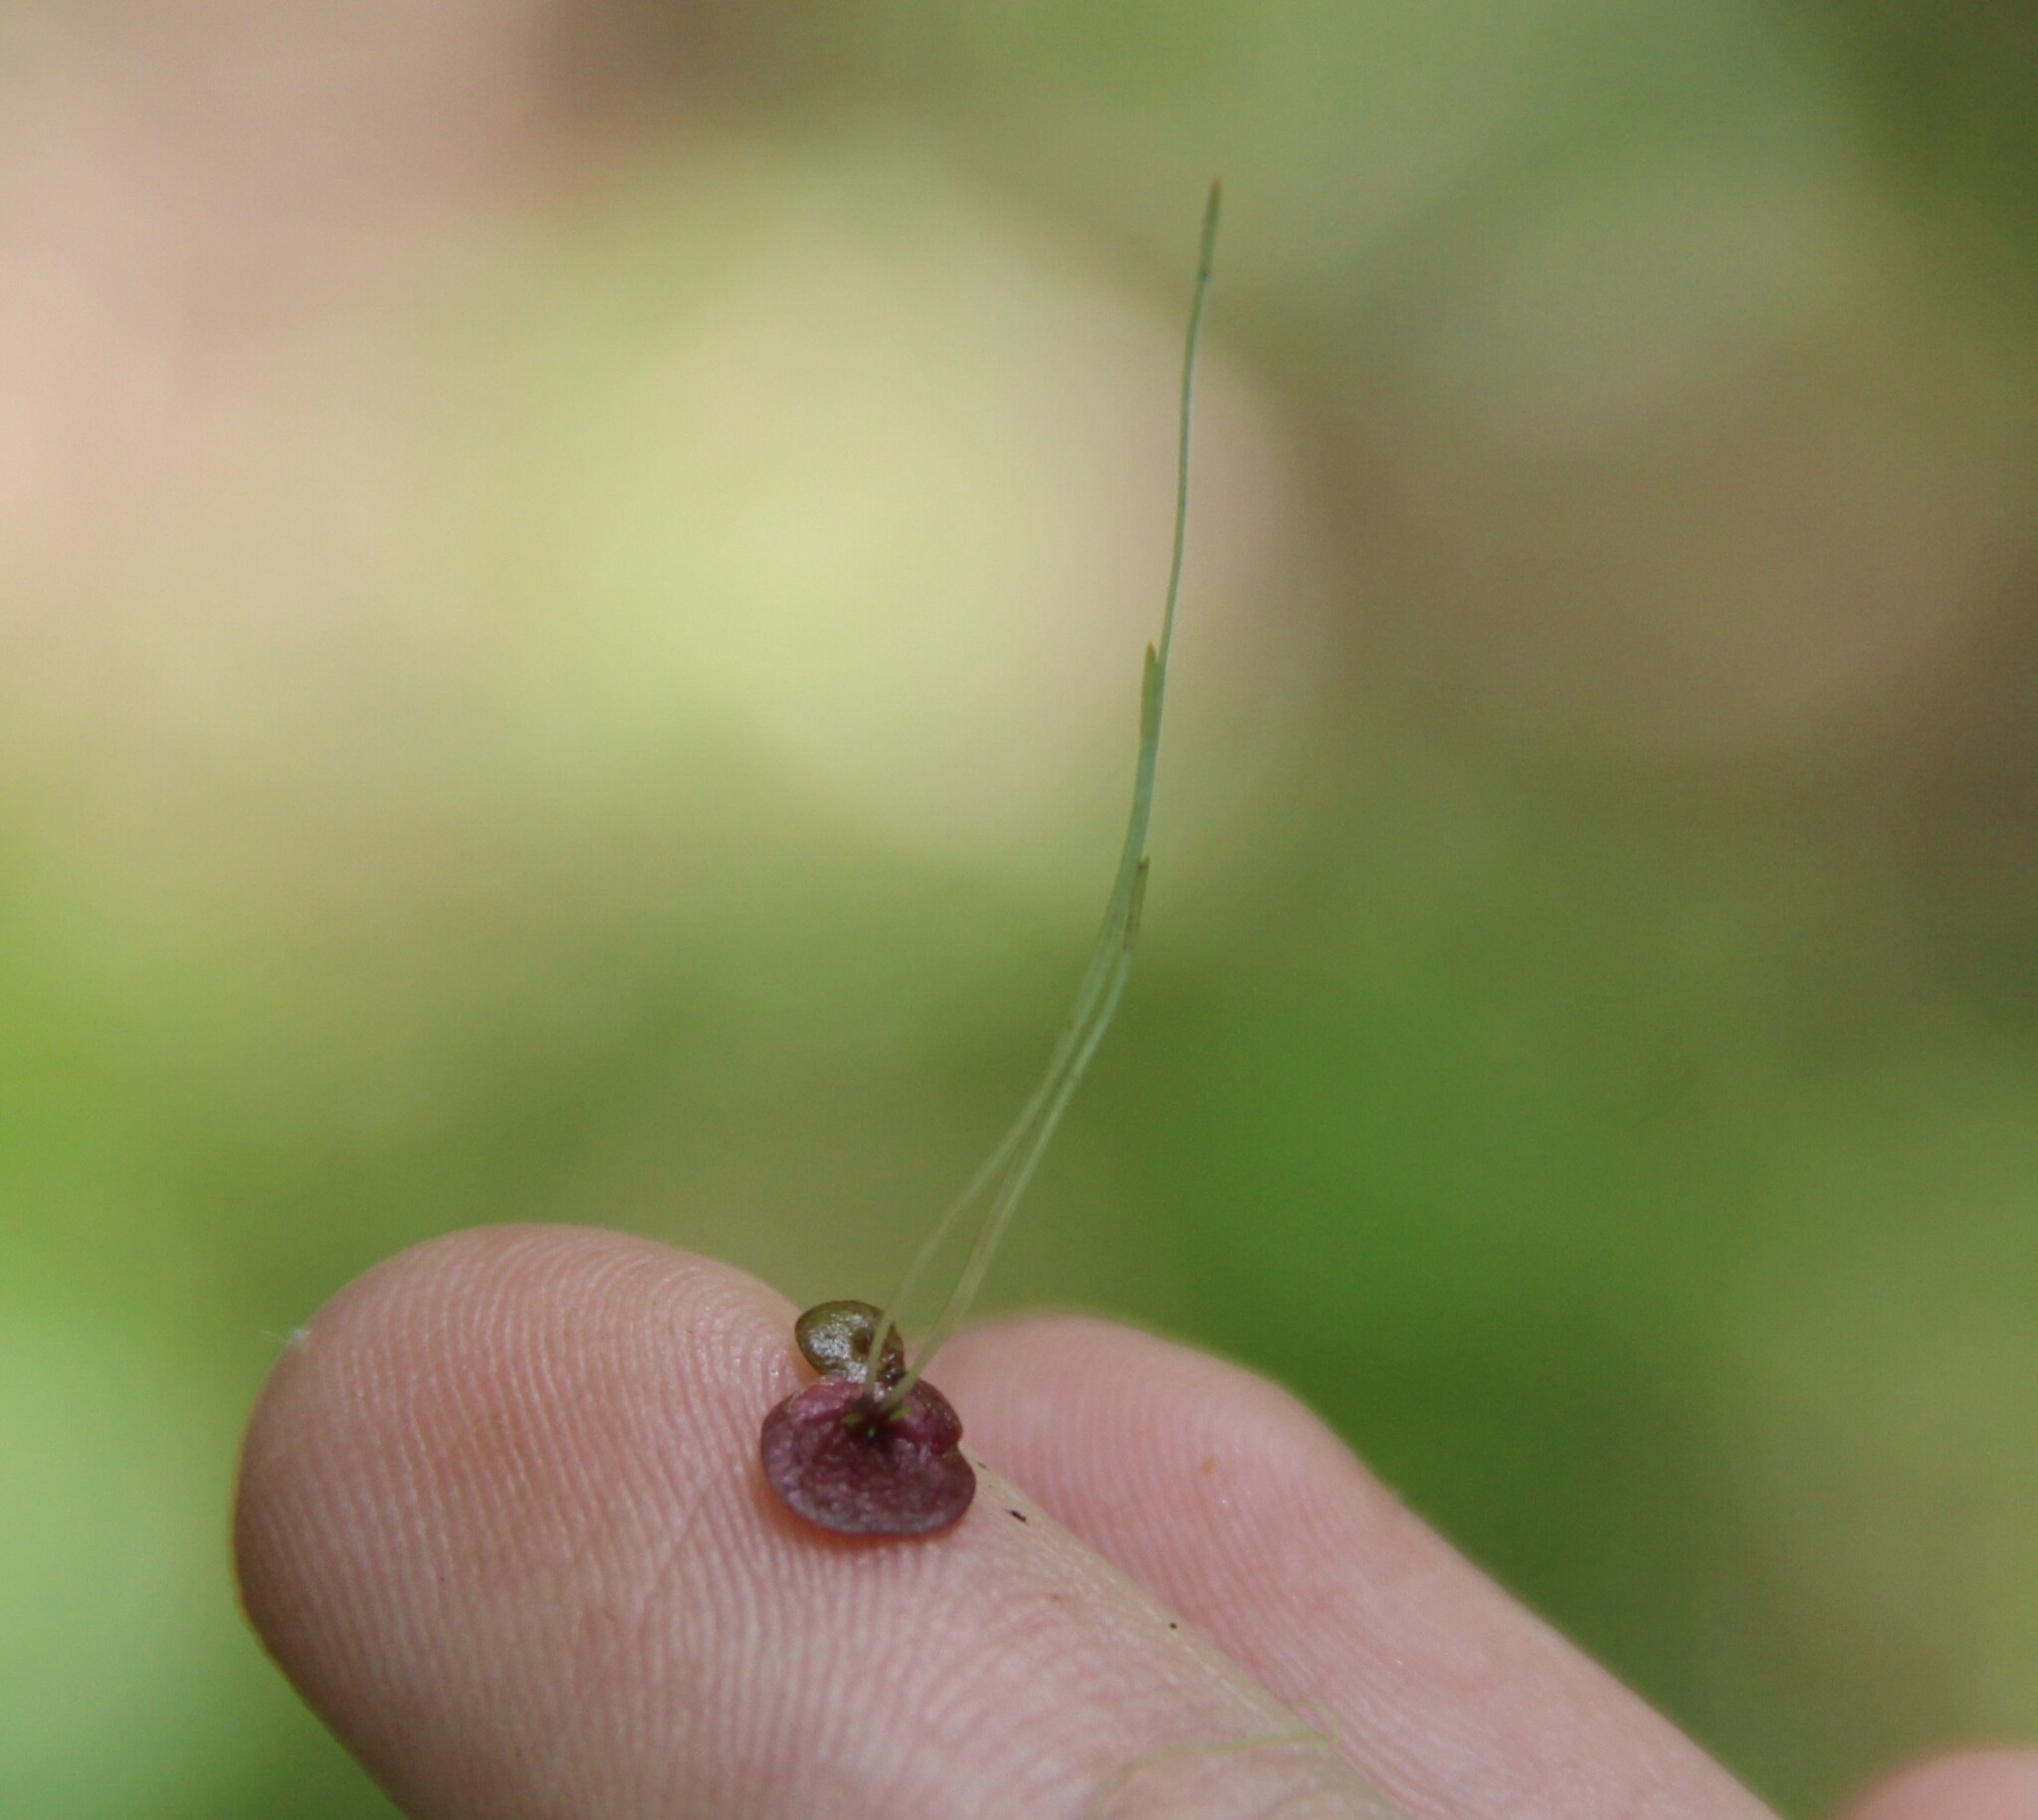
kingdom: Plantae
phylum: Tracheophyta
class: Liliopsida
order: Alismatales
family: Araceae
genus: Spirodela
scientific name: Spirodela polyrhiza
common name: Great duckweed
